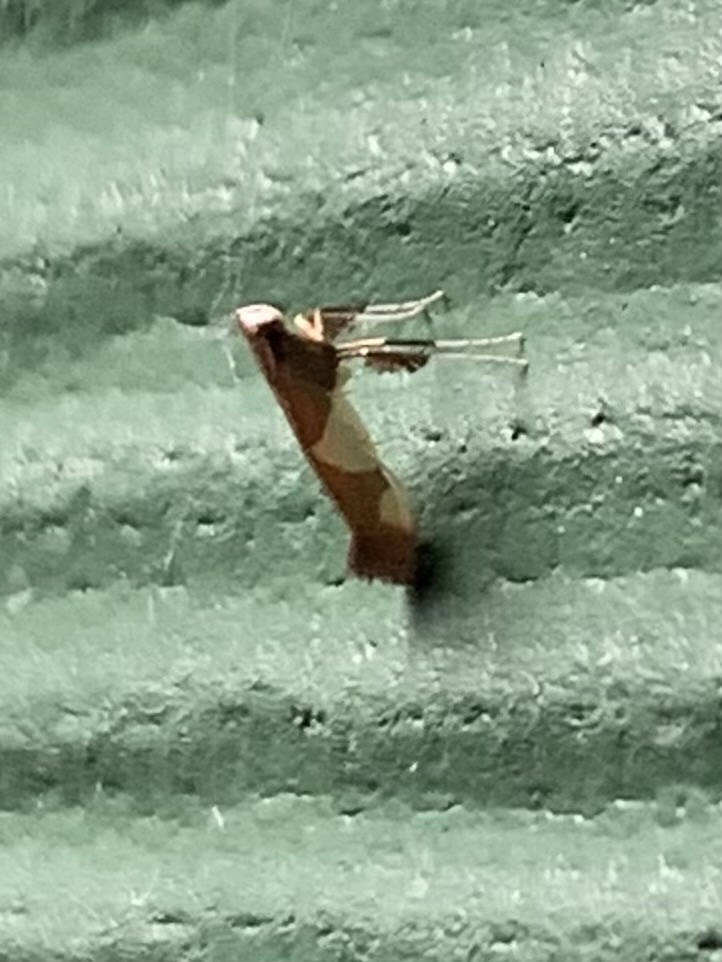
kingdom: Animalia
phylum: Arthropoda
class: Insecta
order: Lepidoptera
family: Gracillariidae
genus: Caloptilia
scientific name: Caloptilia bimaculatella
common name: Maple caloptilia moth
